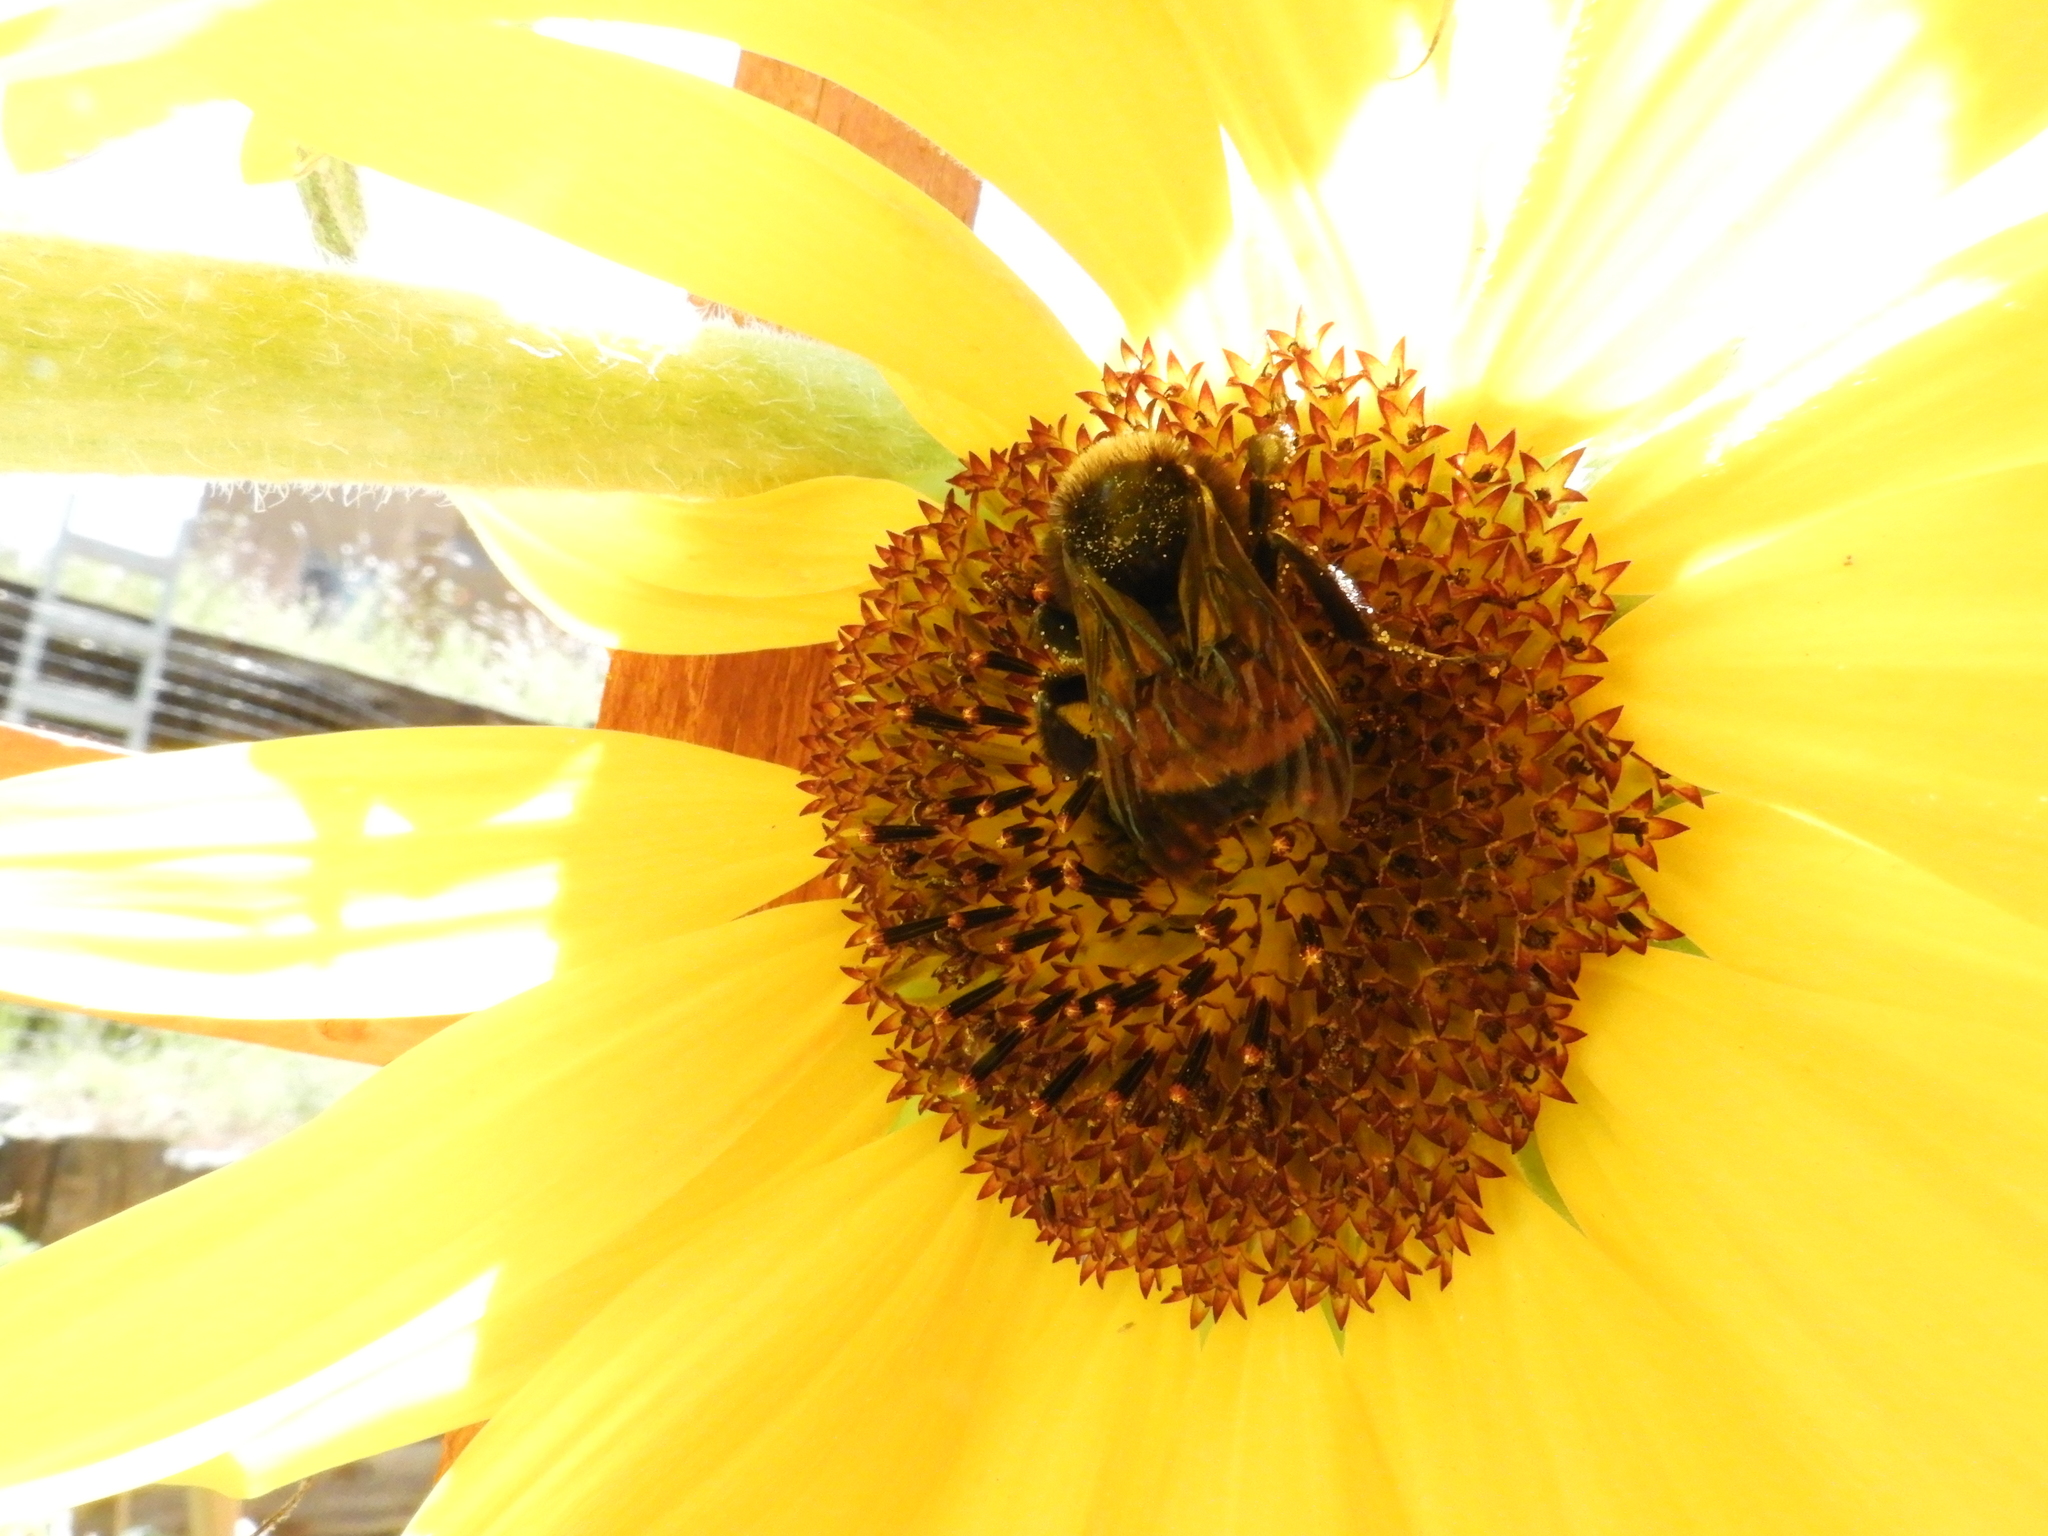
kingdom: Animalia
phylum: Arthropoda
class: Insecta
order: Hymenoptera
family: Apidae
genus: Bombus
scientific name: Bombus pensylvanicus
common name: Bumble bee
